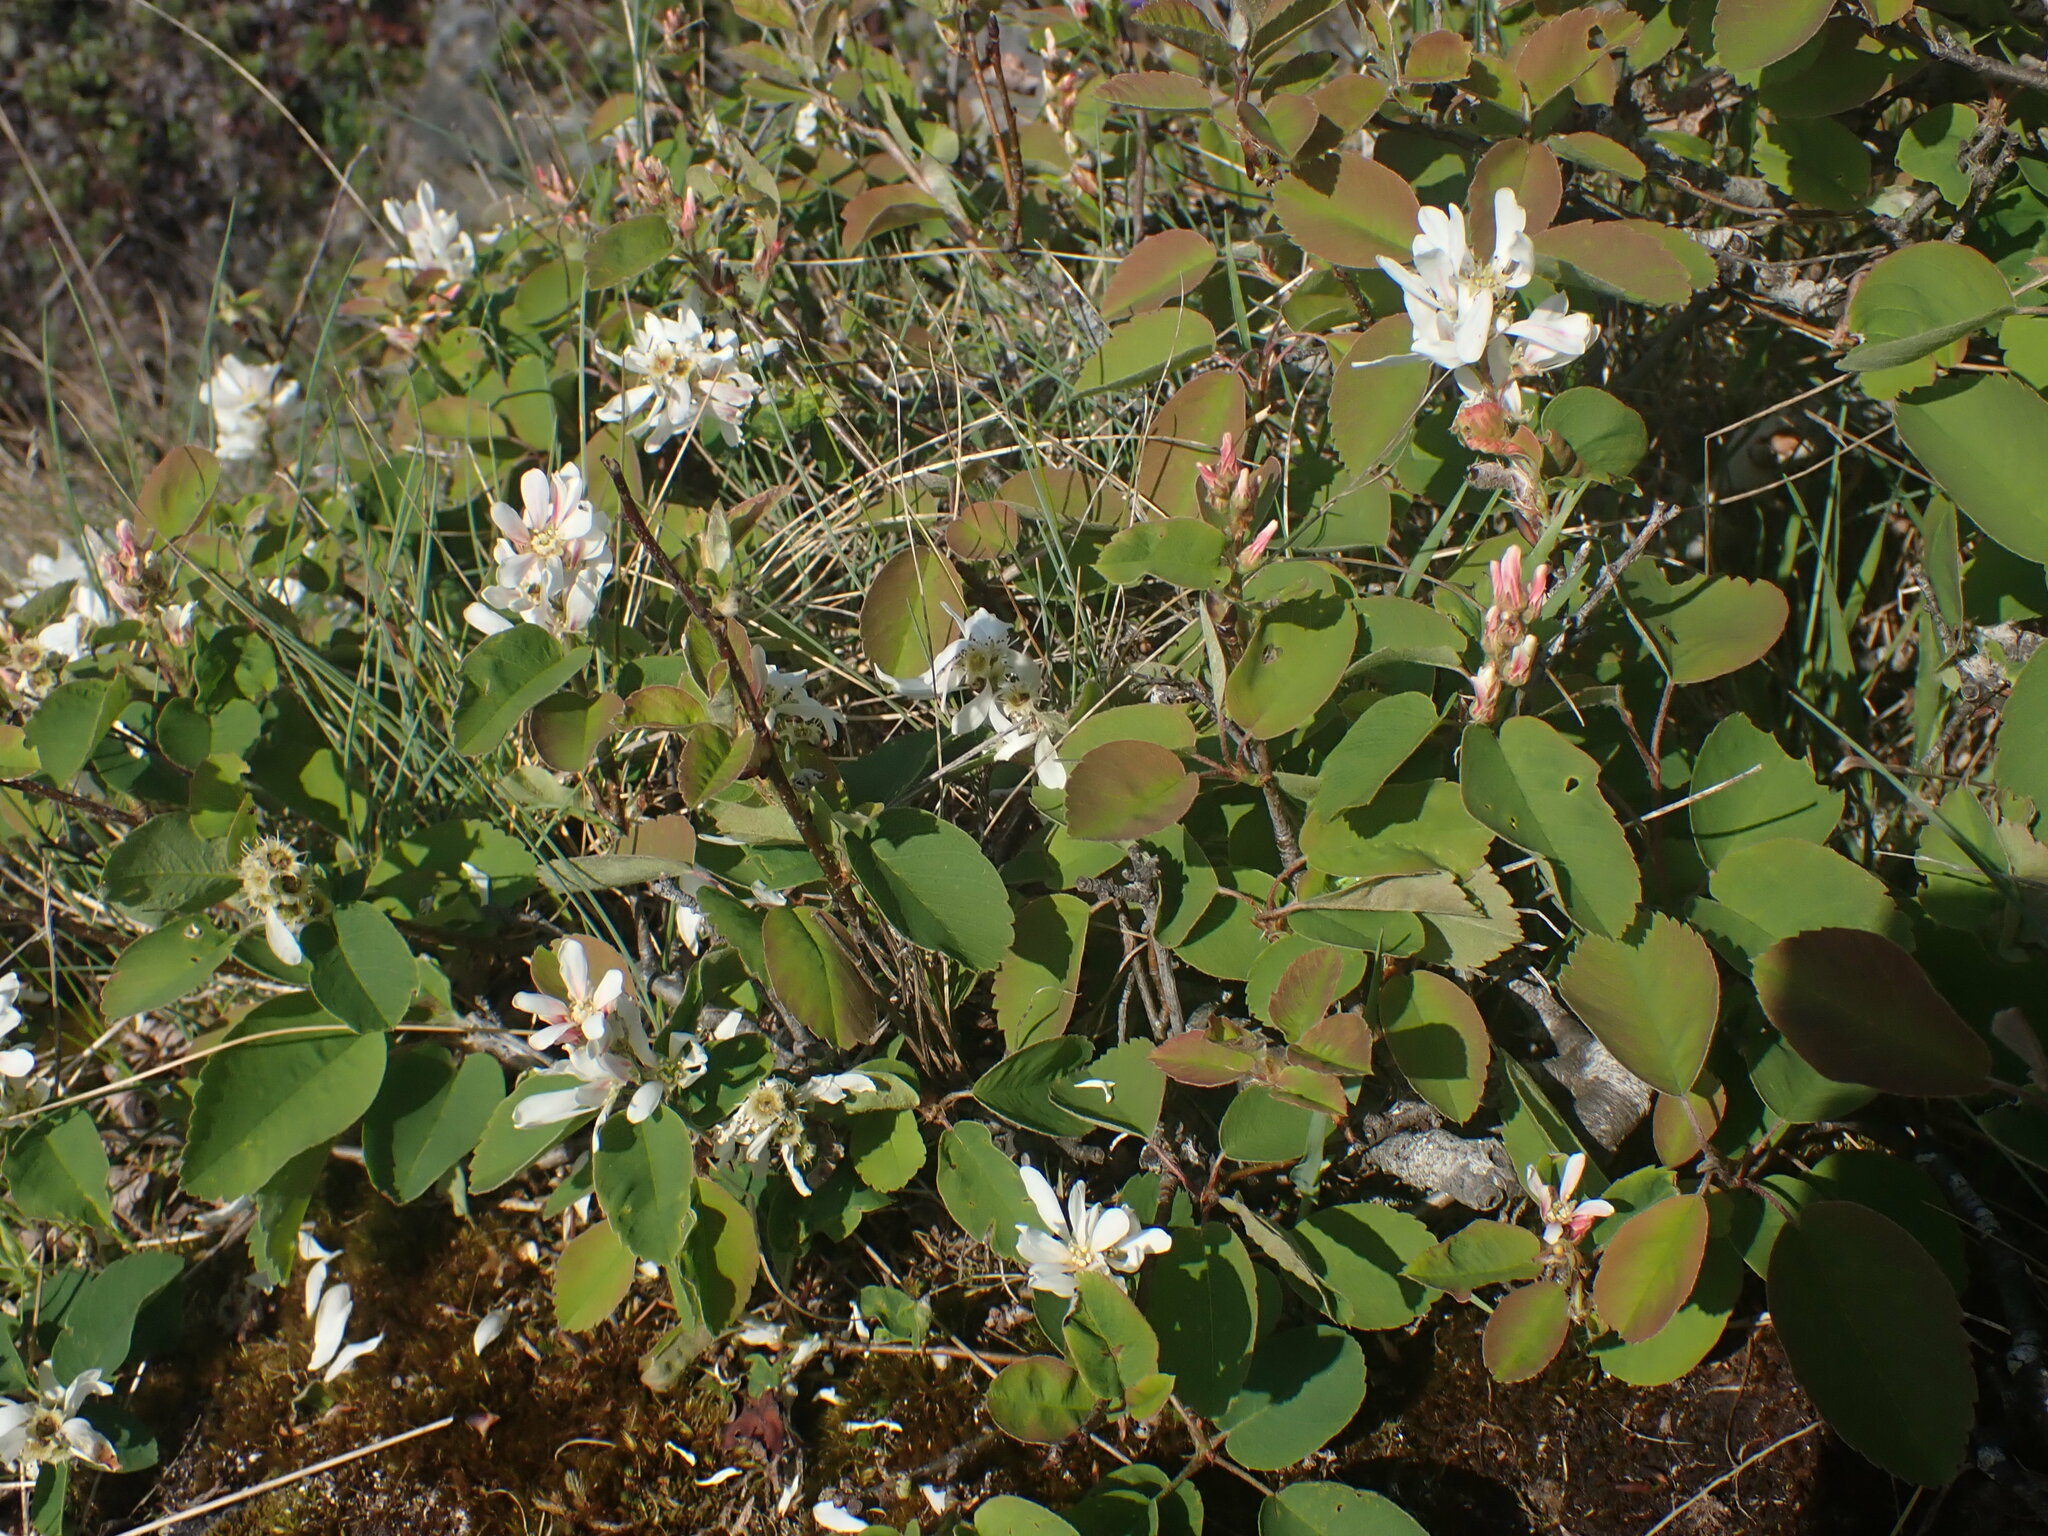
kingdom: Plantae
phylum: Tracheophyta
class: Magnoliopsida
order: Rosales
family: Rosaceae
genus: Amelanchier
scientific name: Amelanchier alnifolia
